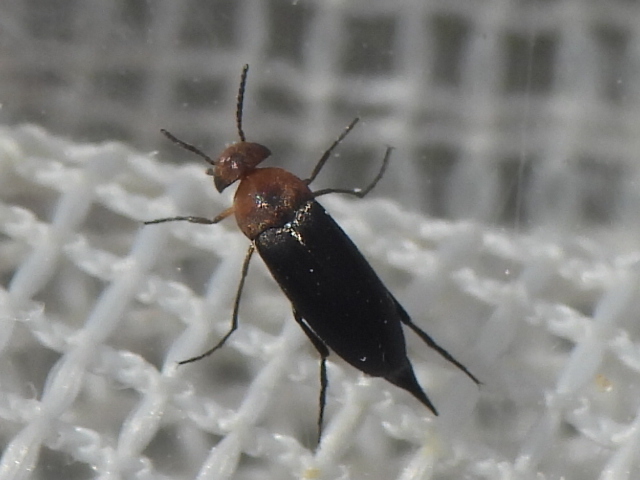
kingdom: Animalia
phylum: Arthropoda
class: Insecta
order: Coleoptera
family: Mordellidae
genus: Mordellistena
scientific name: Mordellistena cervicalis
